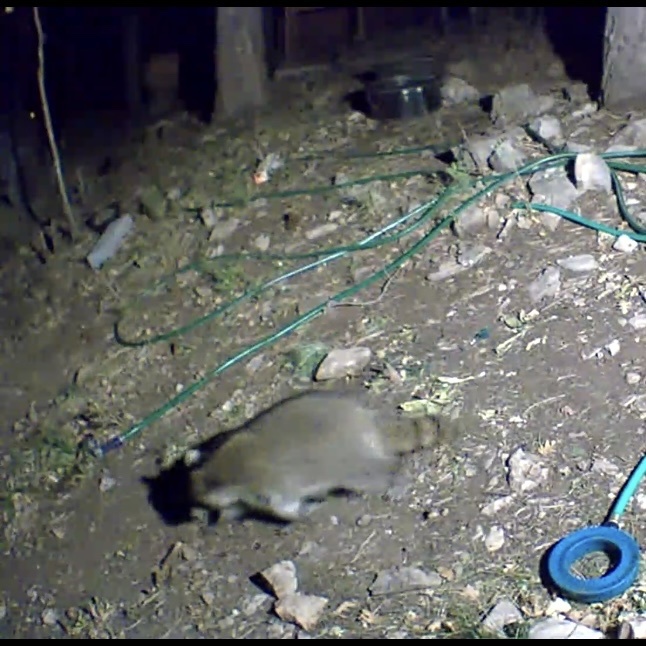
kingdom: Animalia
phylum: Chordata
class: Mammalia
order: Carnivora
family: Procyonidae
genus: Procyon
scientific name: Procyon lotor
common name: Raccoon
